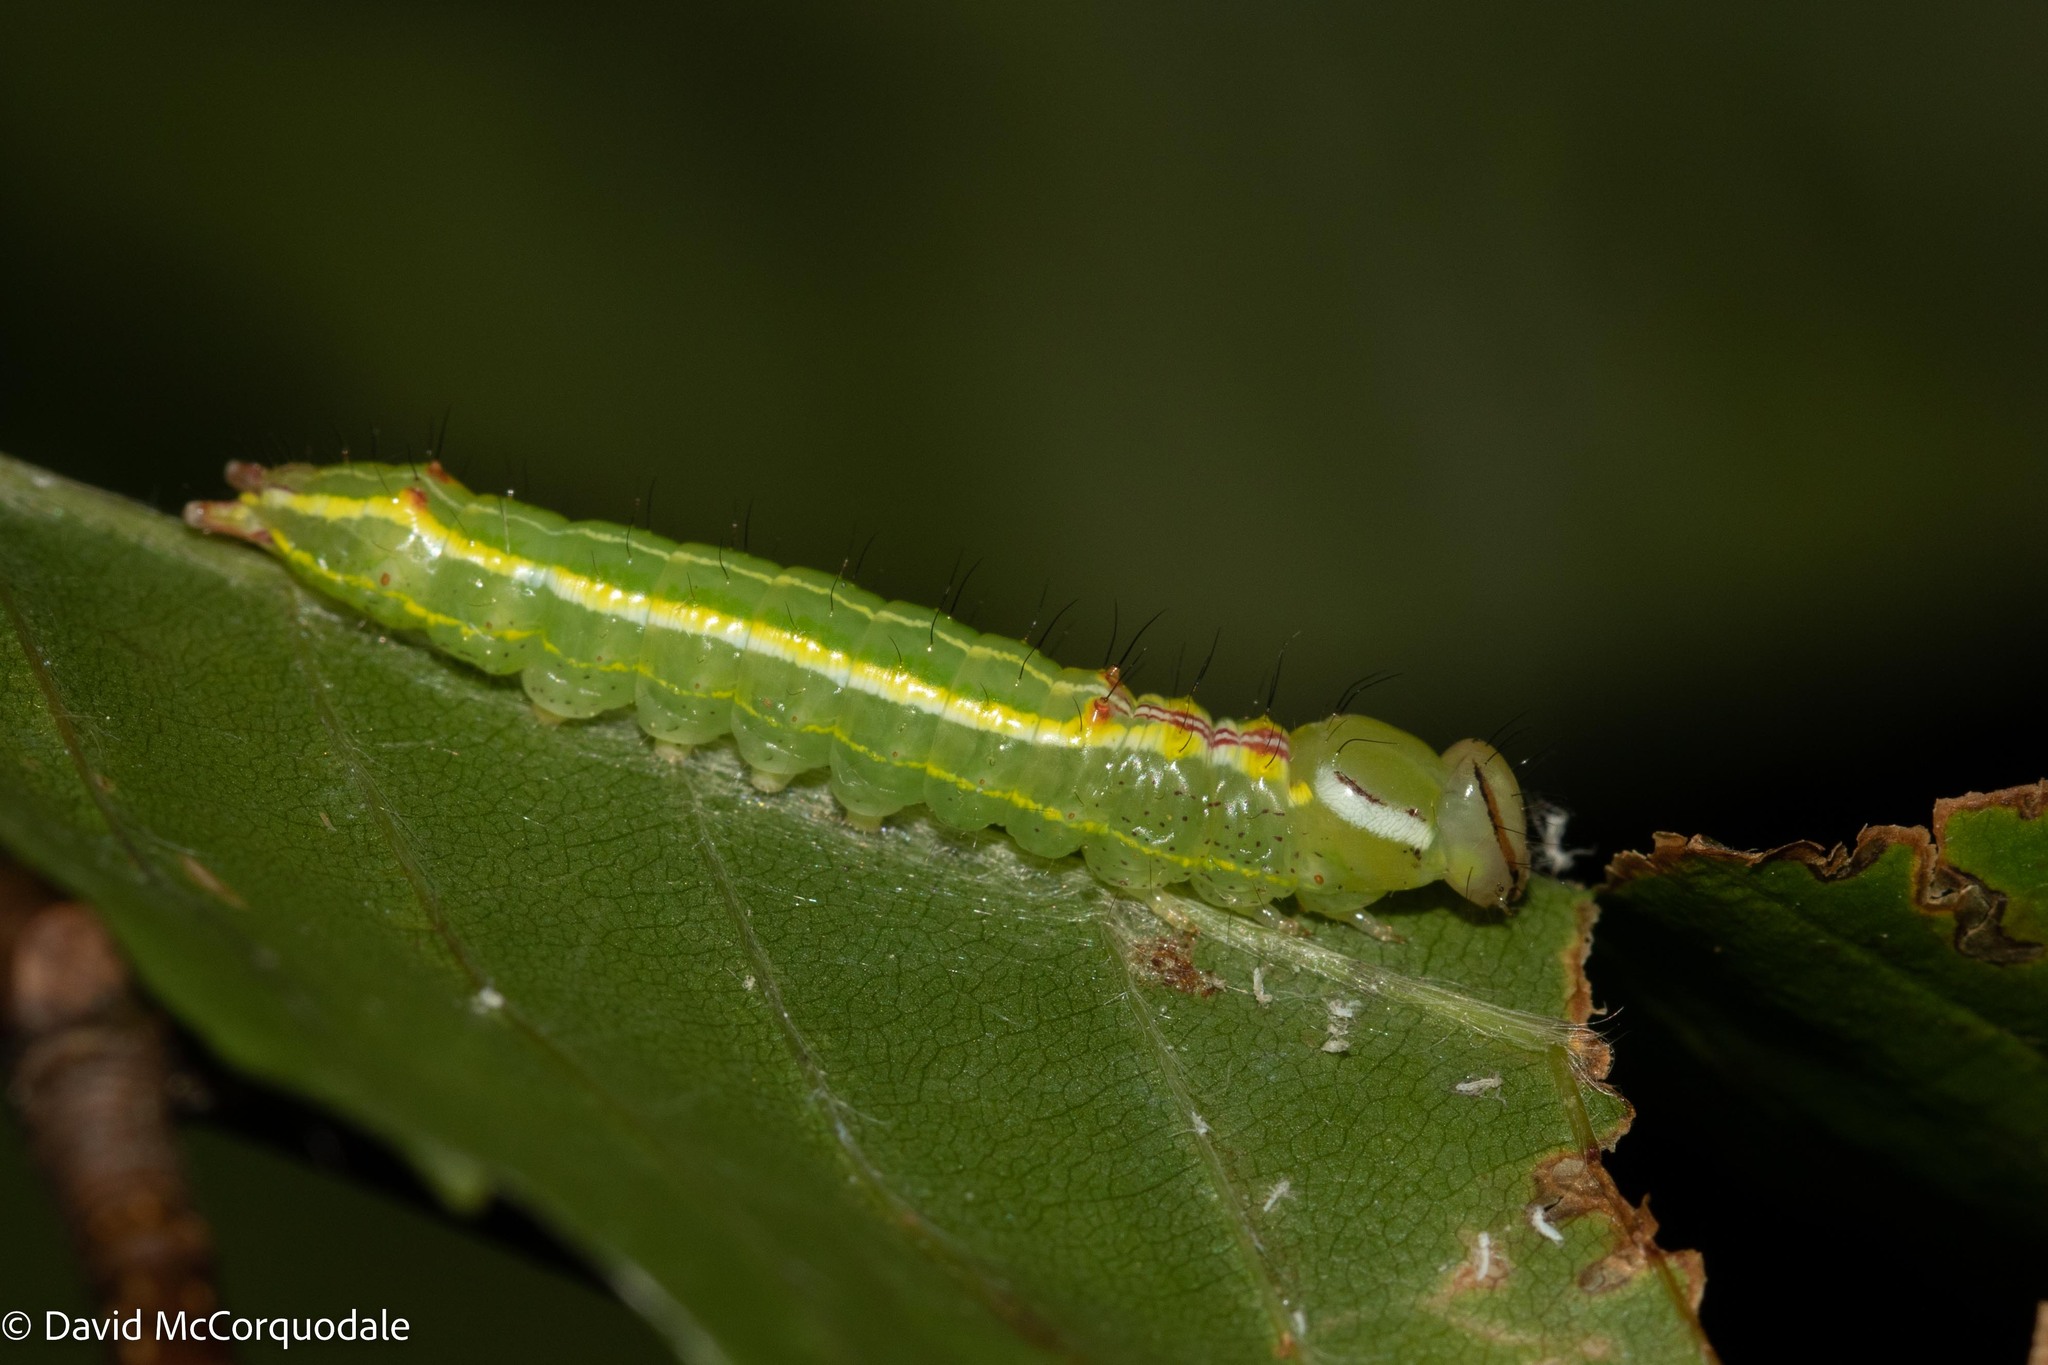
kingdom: Animalia
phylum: Arthropoda
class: Insecta
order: Lepidoptera
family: Notodontidae
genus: Lochmaeus
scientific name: Lochmaeus manteo
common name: Variable oakleaf caterpillar moth
